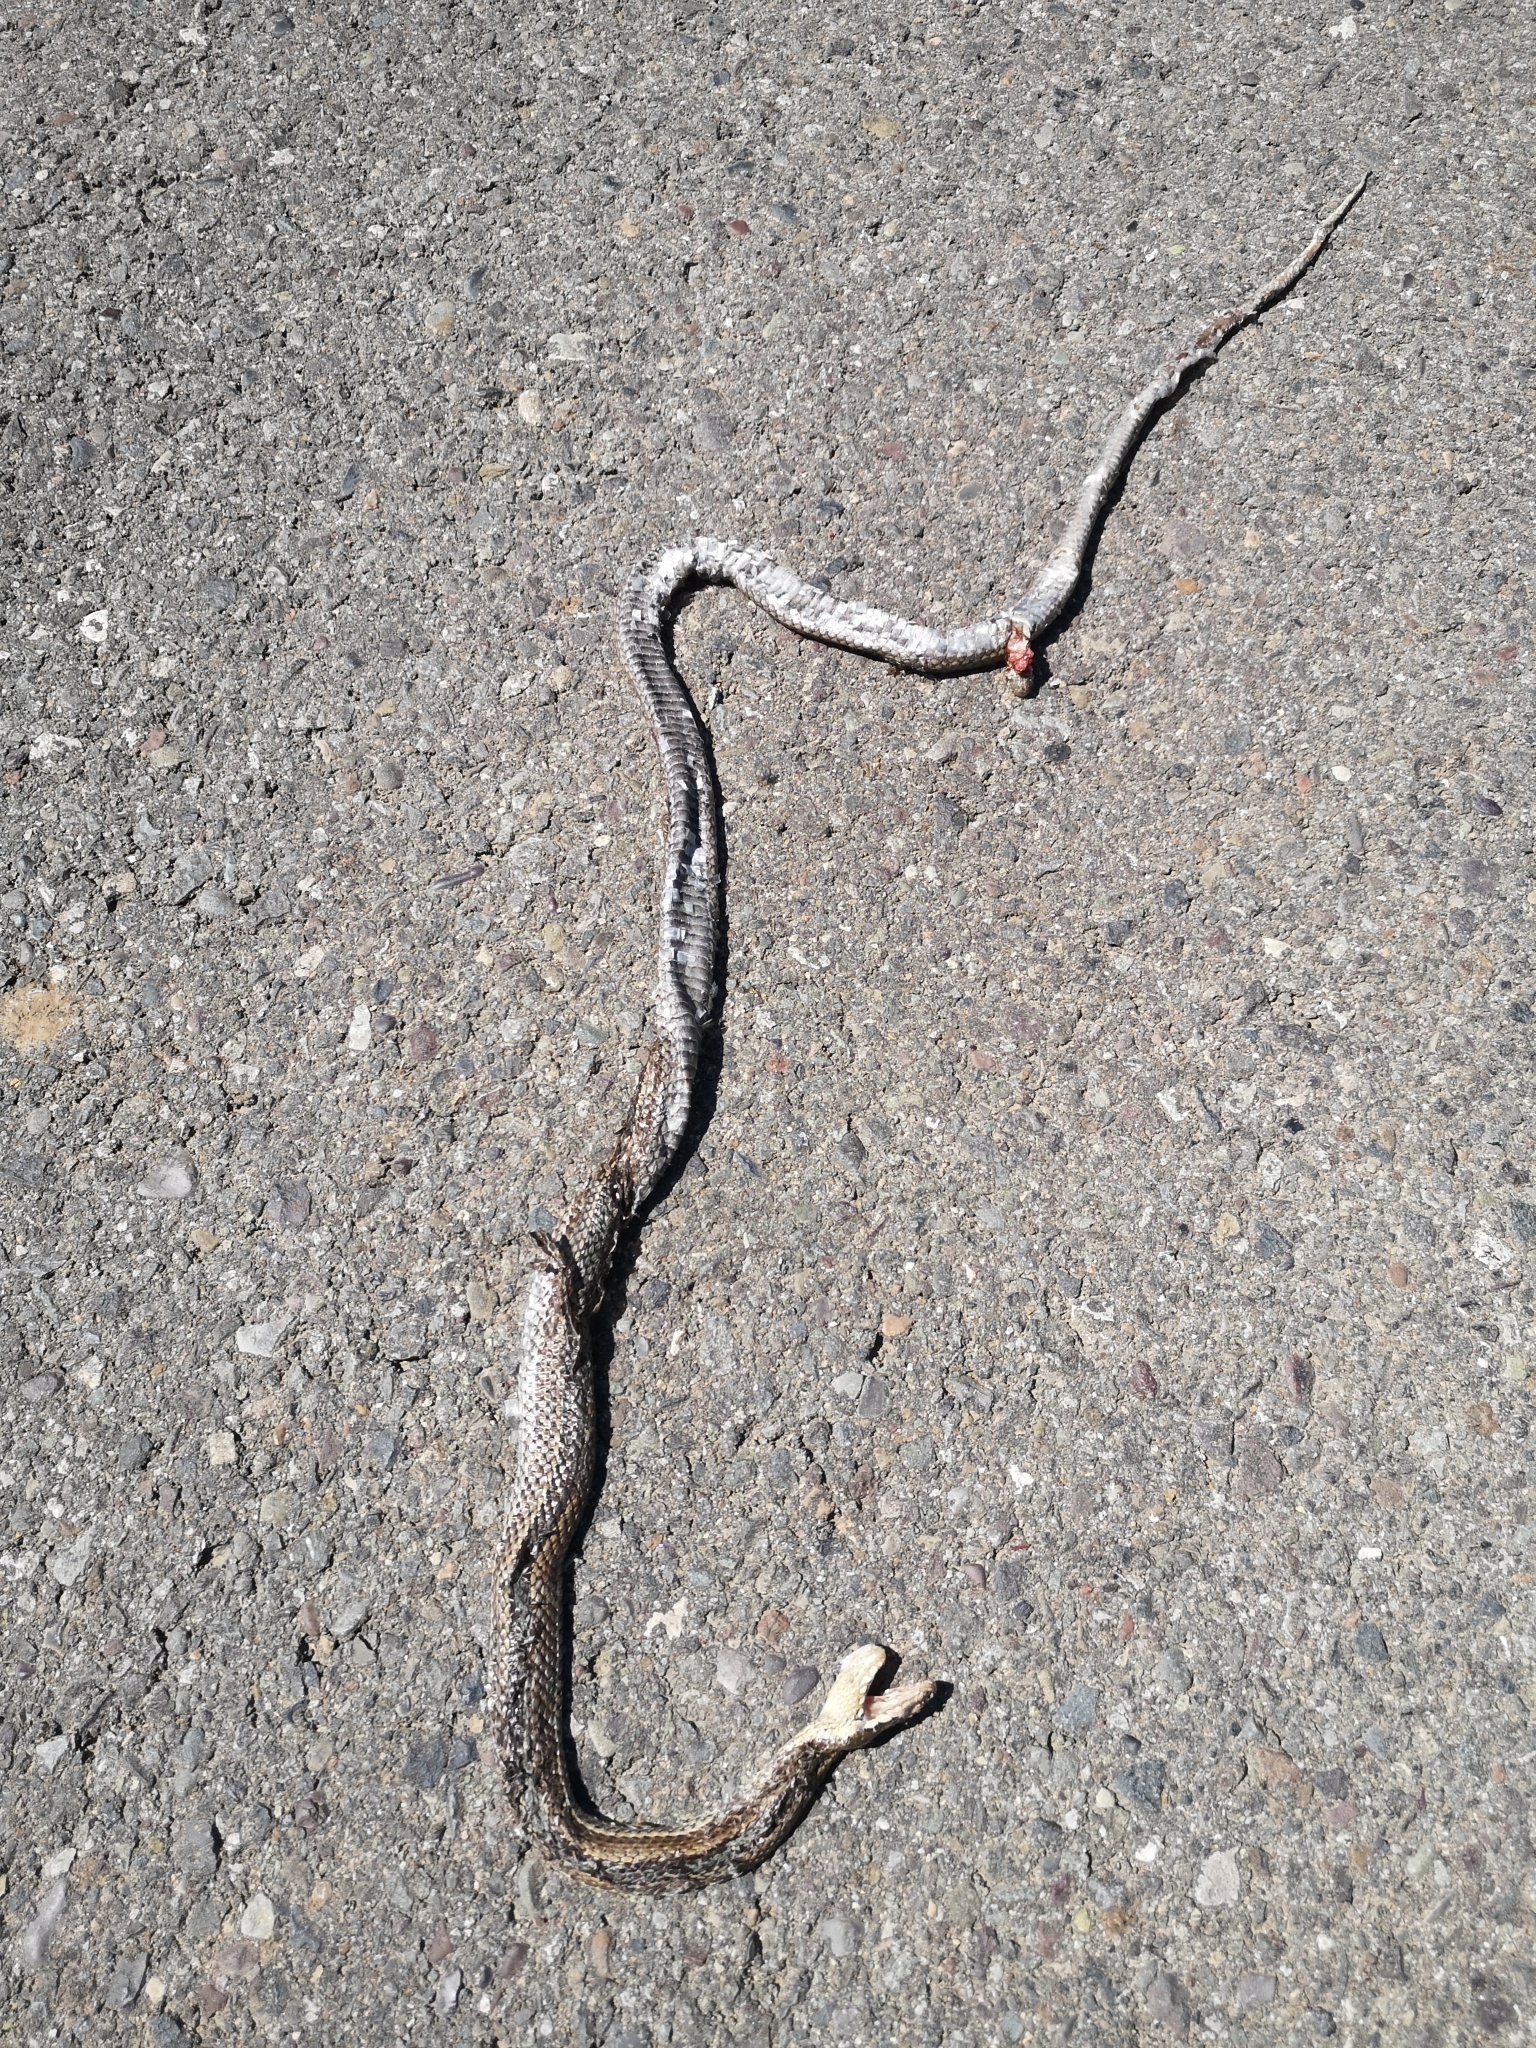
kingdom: Animalia
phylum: Chordata
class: Squamata
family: Colubridae
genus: Philodryas
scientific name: Philodryas chamissonis
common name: Chilean green racer
